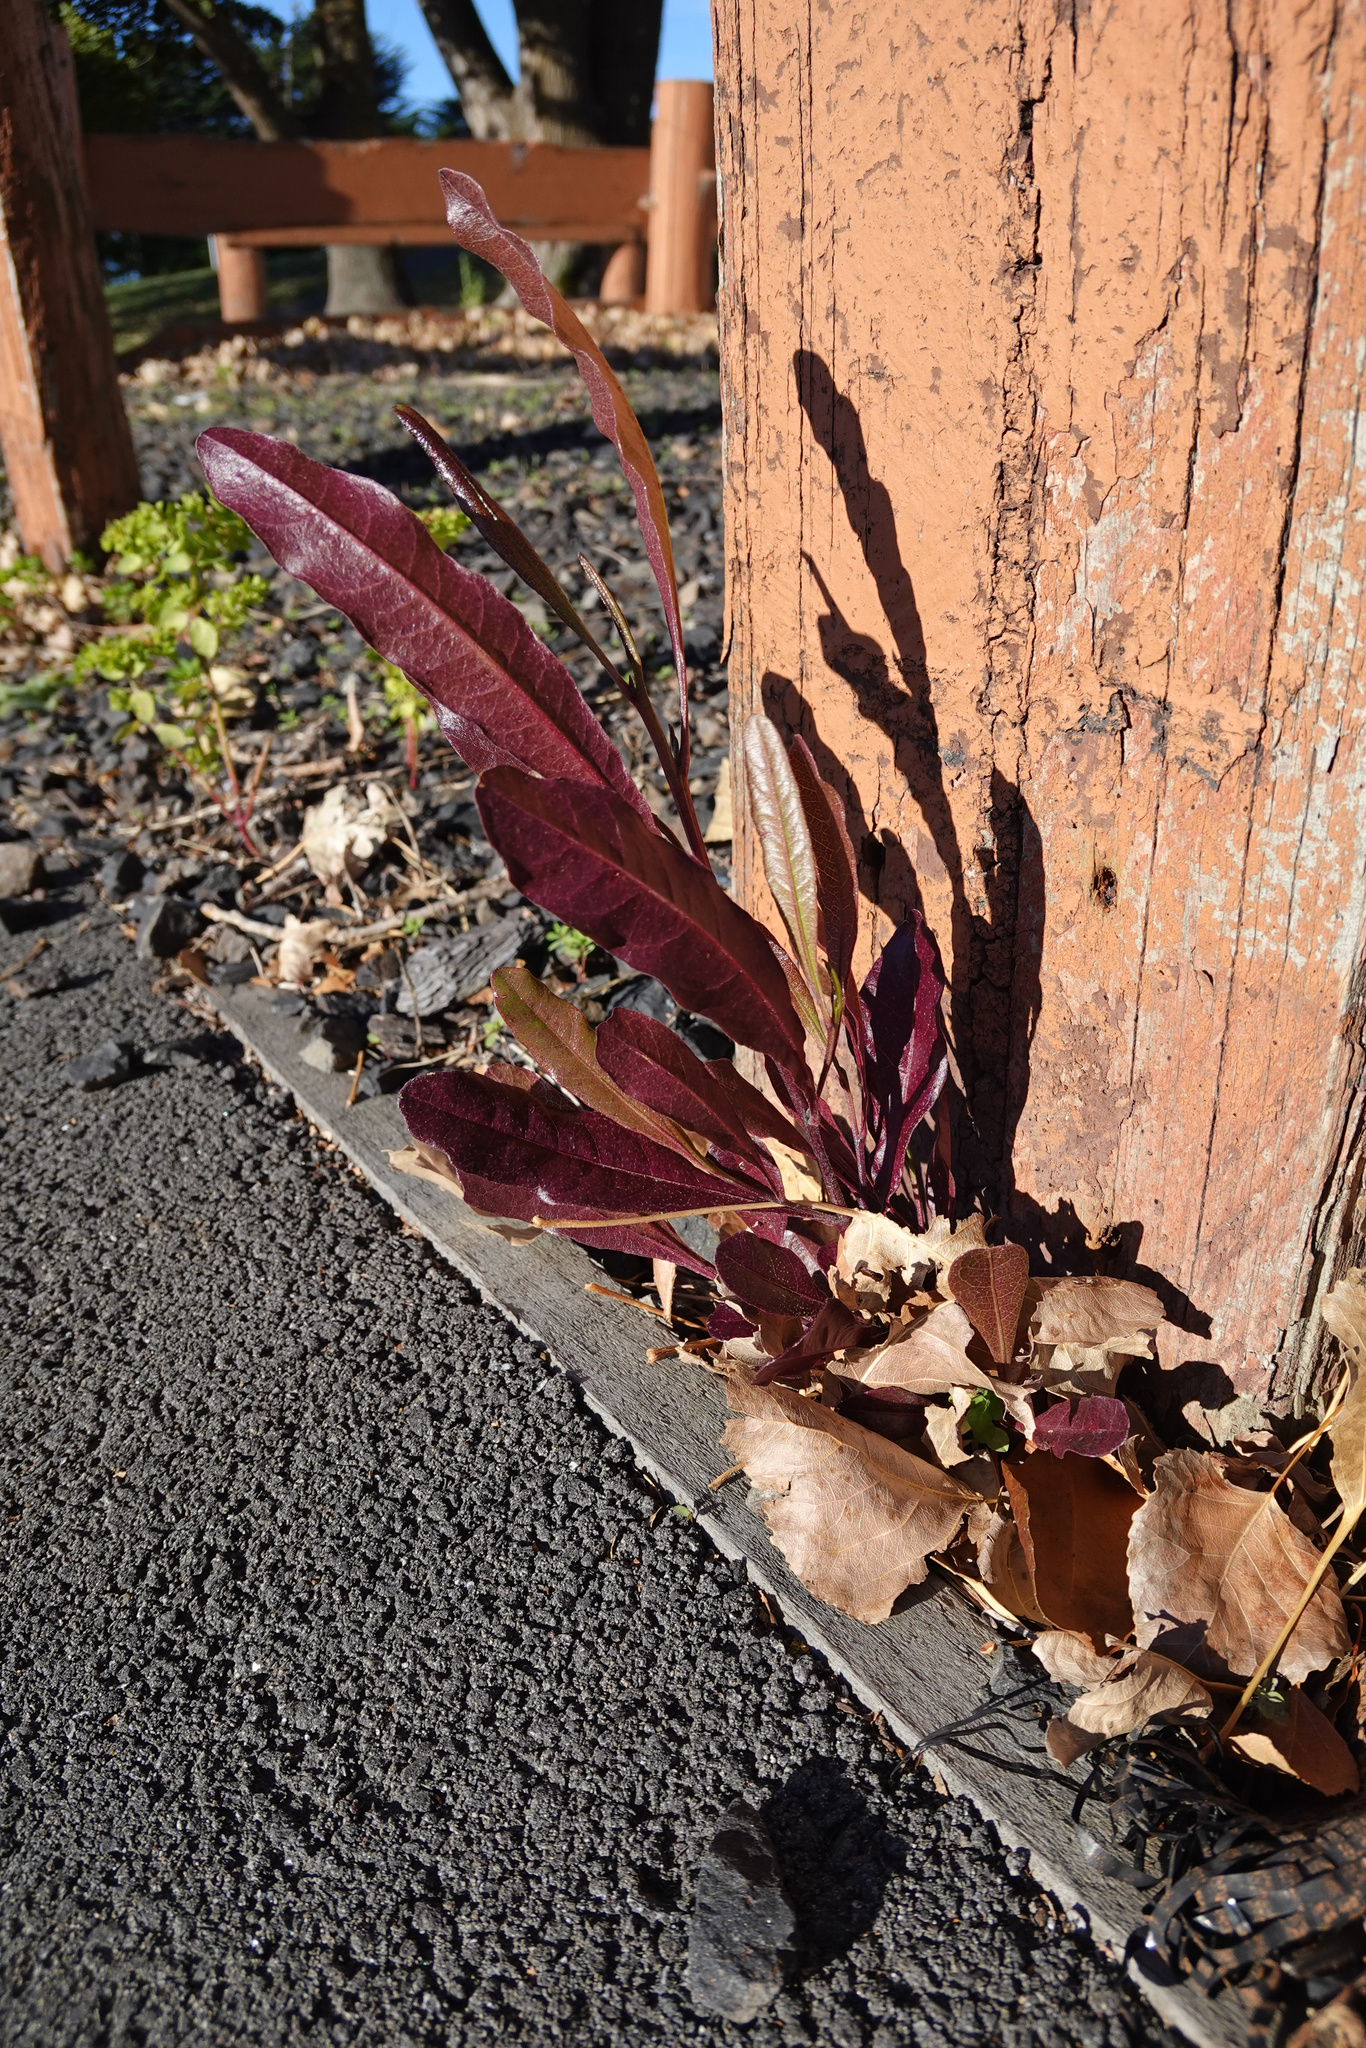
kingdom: Plantae
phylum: Tracheophyta
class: Magnoliopsida
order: Sapindales
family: Sapindaceae
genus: Dodonaea
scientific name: Dodonaea viscosa
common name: Hopbush
